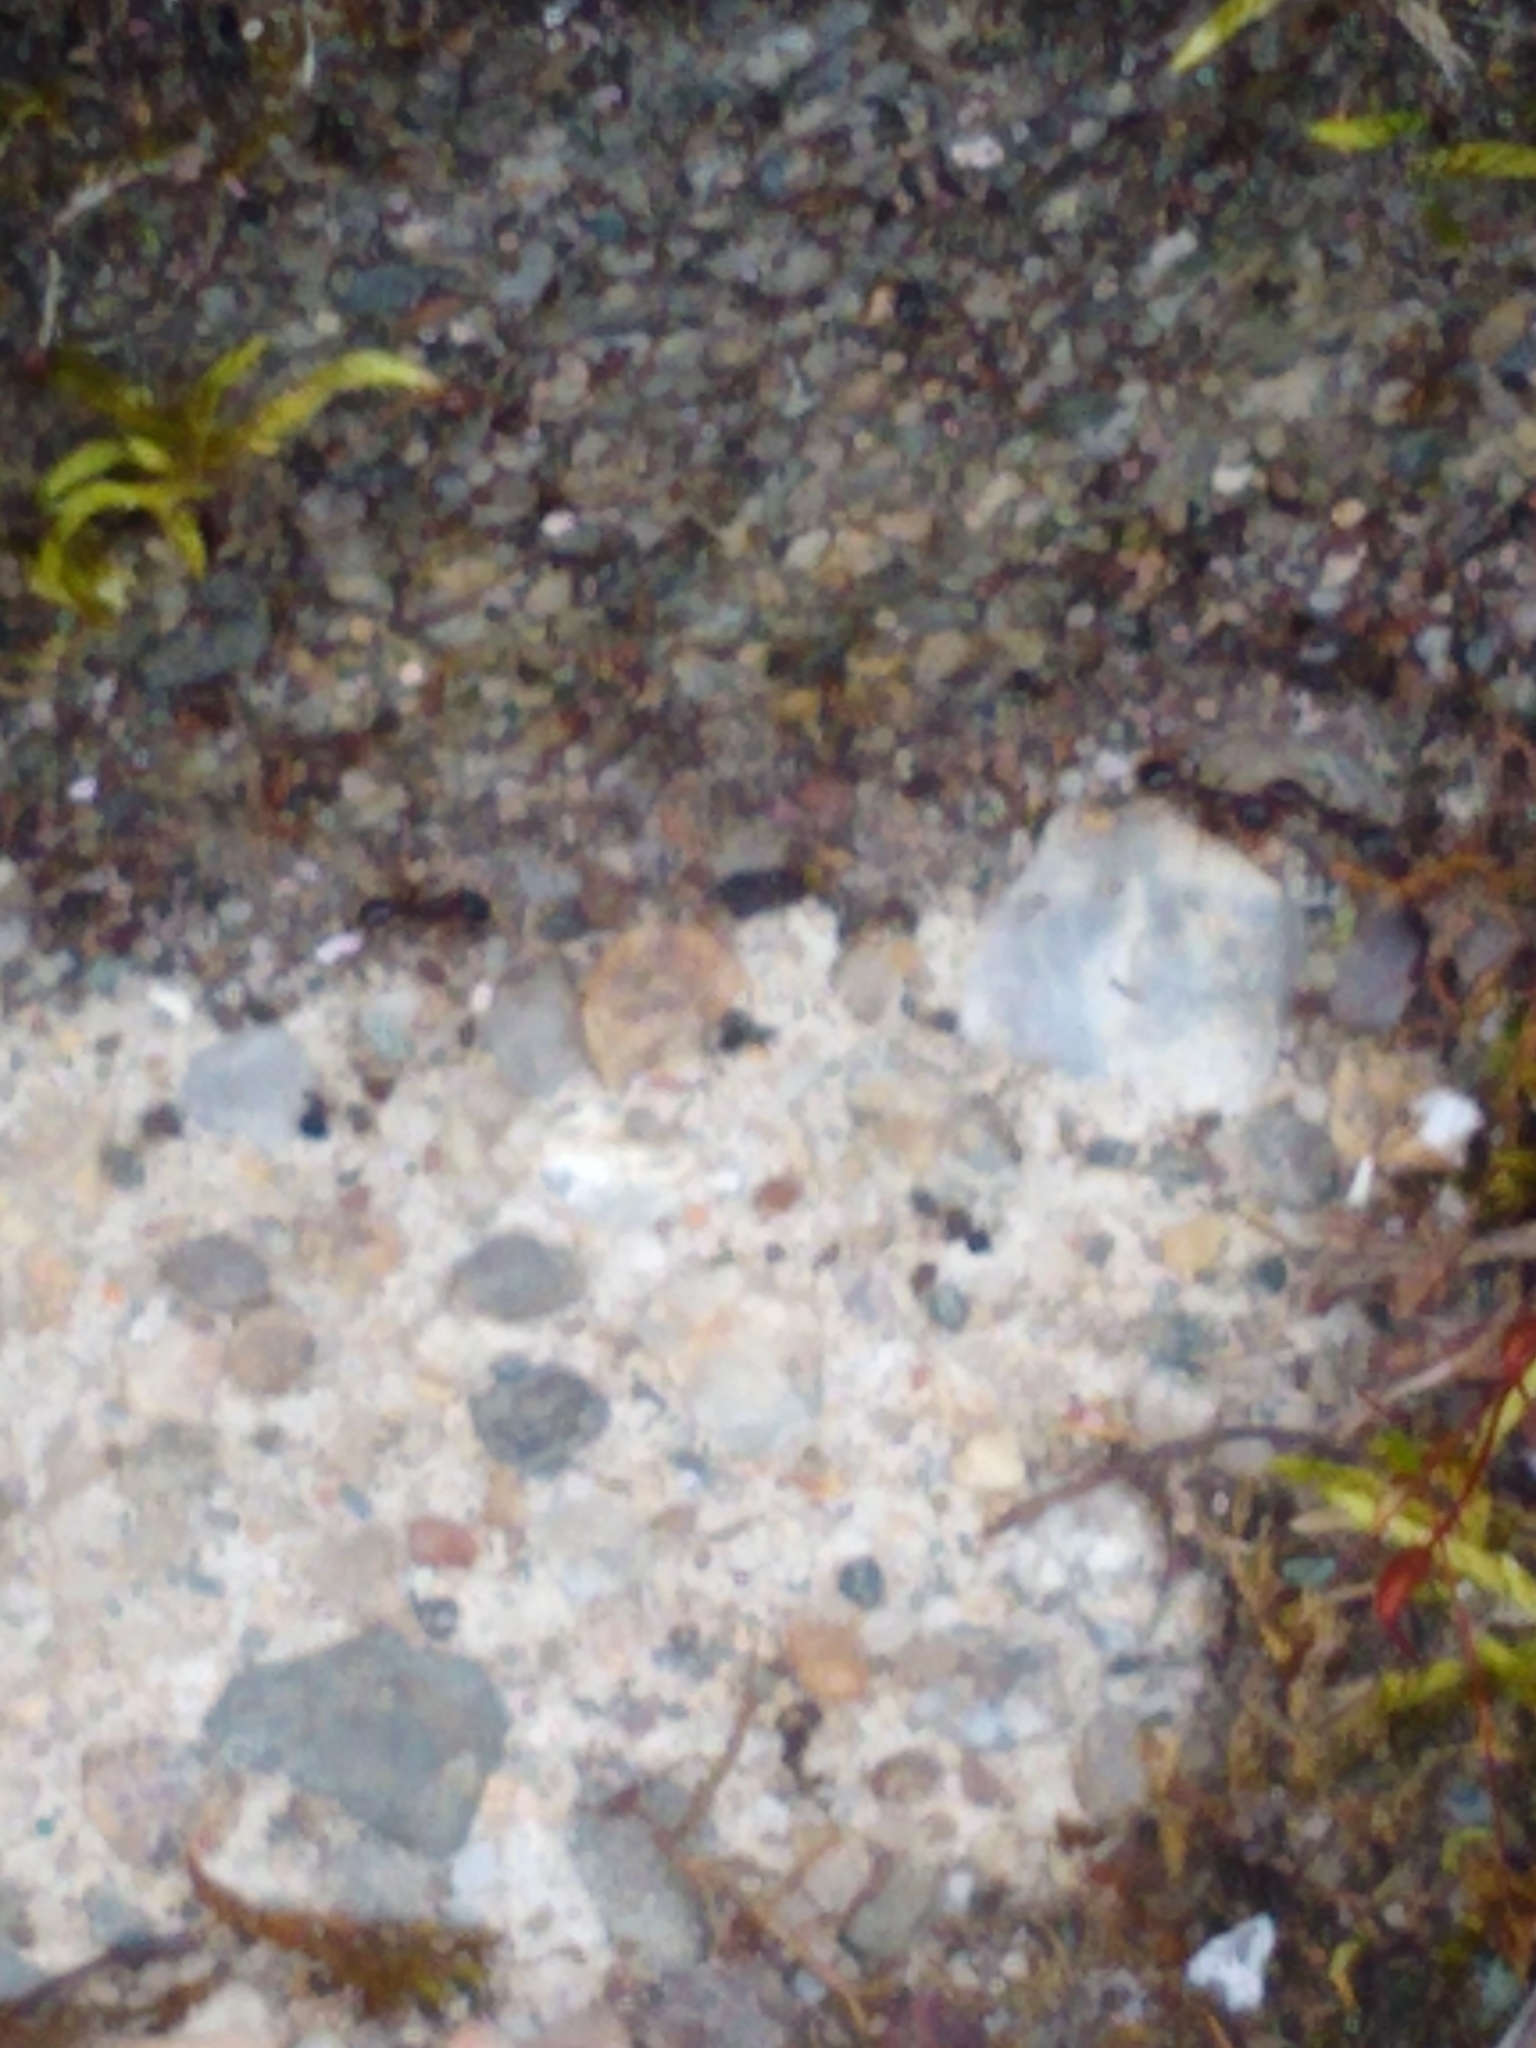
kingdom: Animalia
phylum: Arthropoda
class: Insecta
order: Hymenoptera
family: Formicidae
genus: Tetramorium
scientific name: Tetramorium immigrans
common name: Pavement ant
